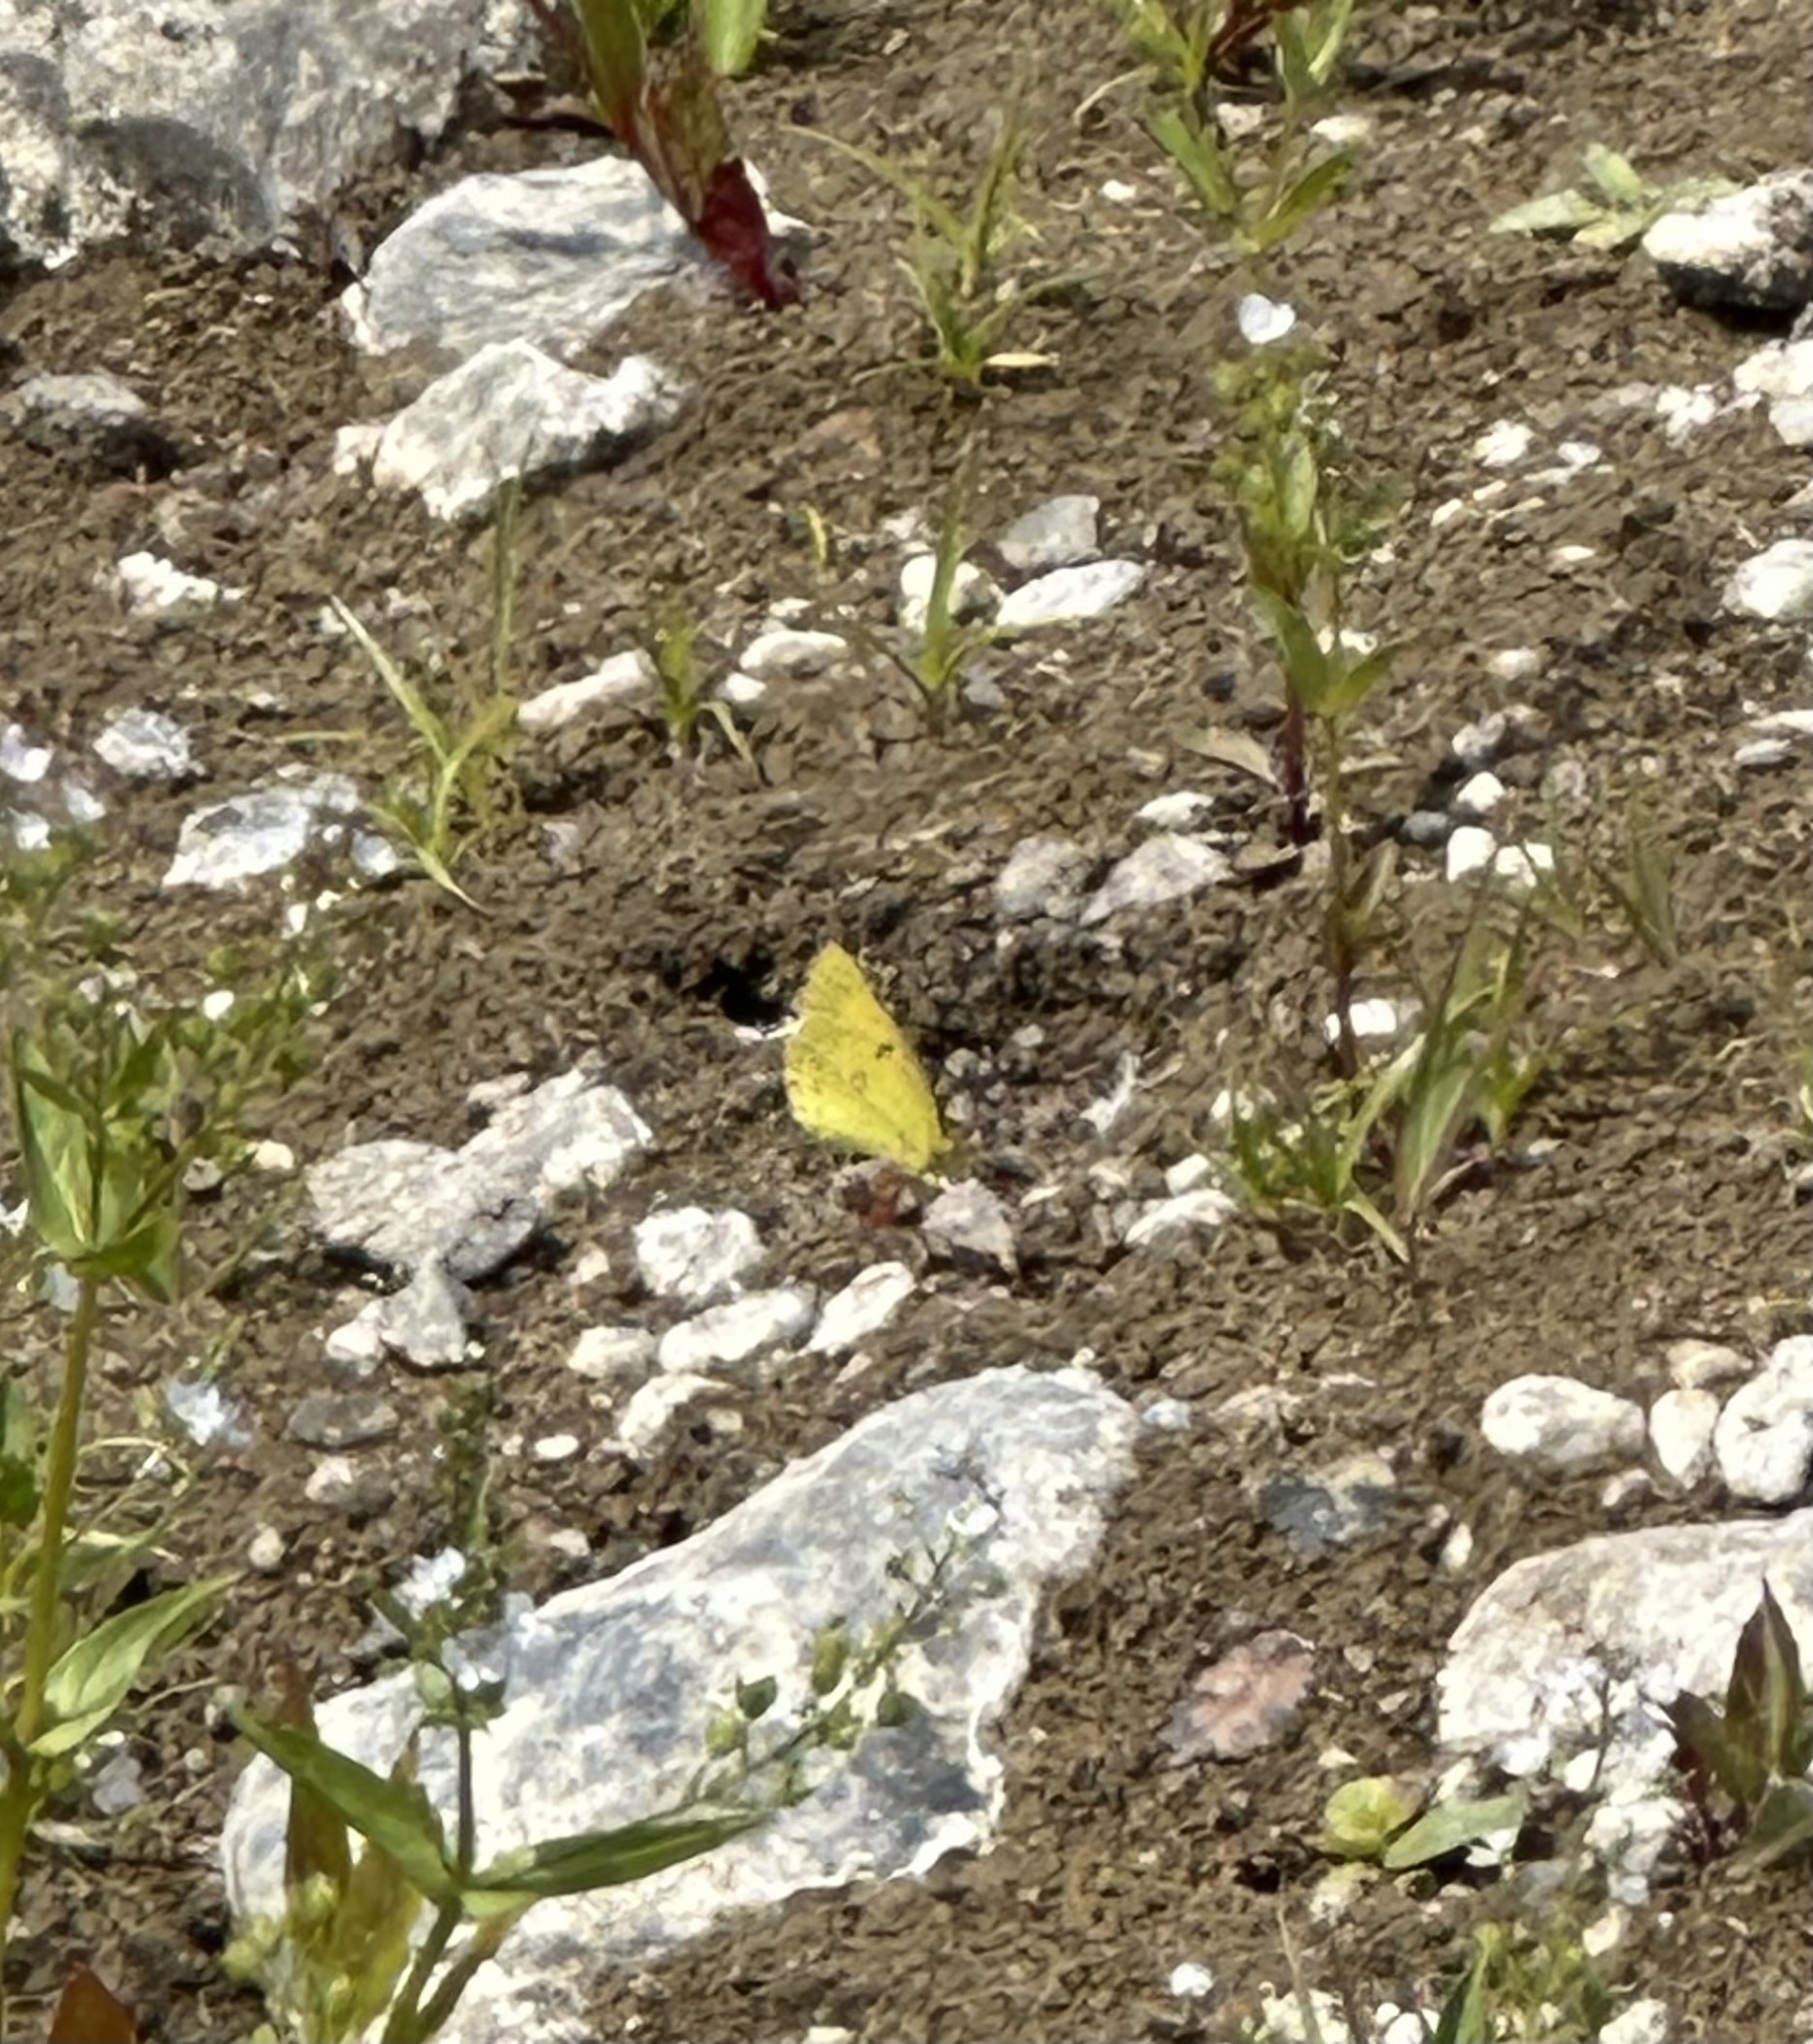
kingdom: Animalia
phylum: Arthropoda
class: Insecta
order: Lepidoptera
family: Pieridae
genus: Colias
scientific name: Colias eurytheme
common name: Alfalfa butterfly
